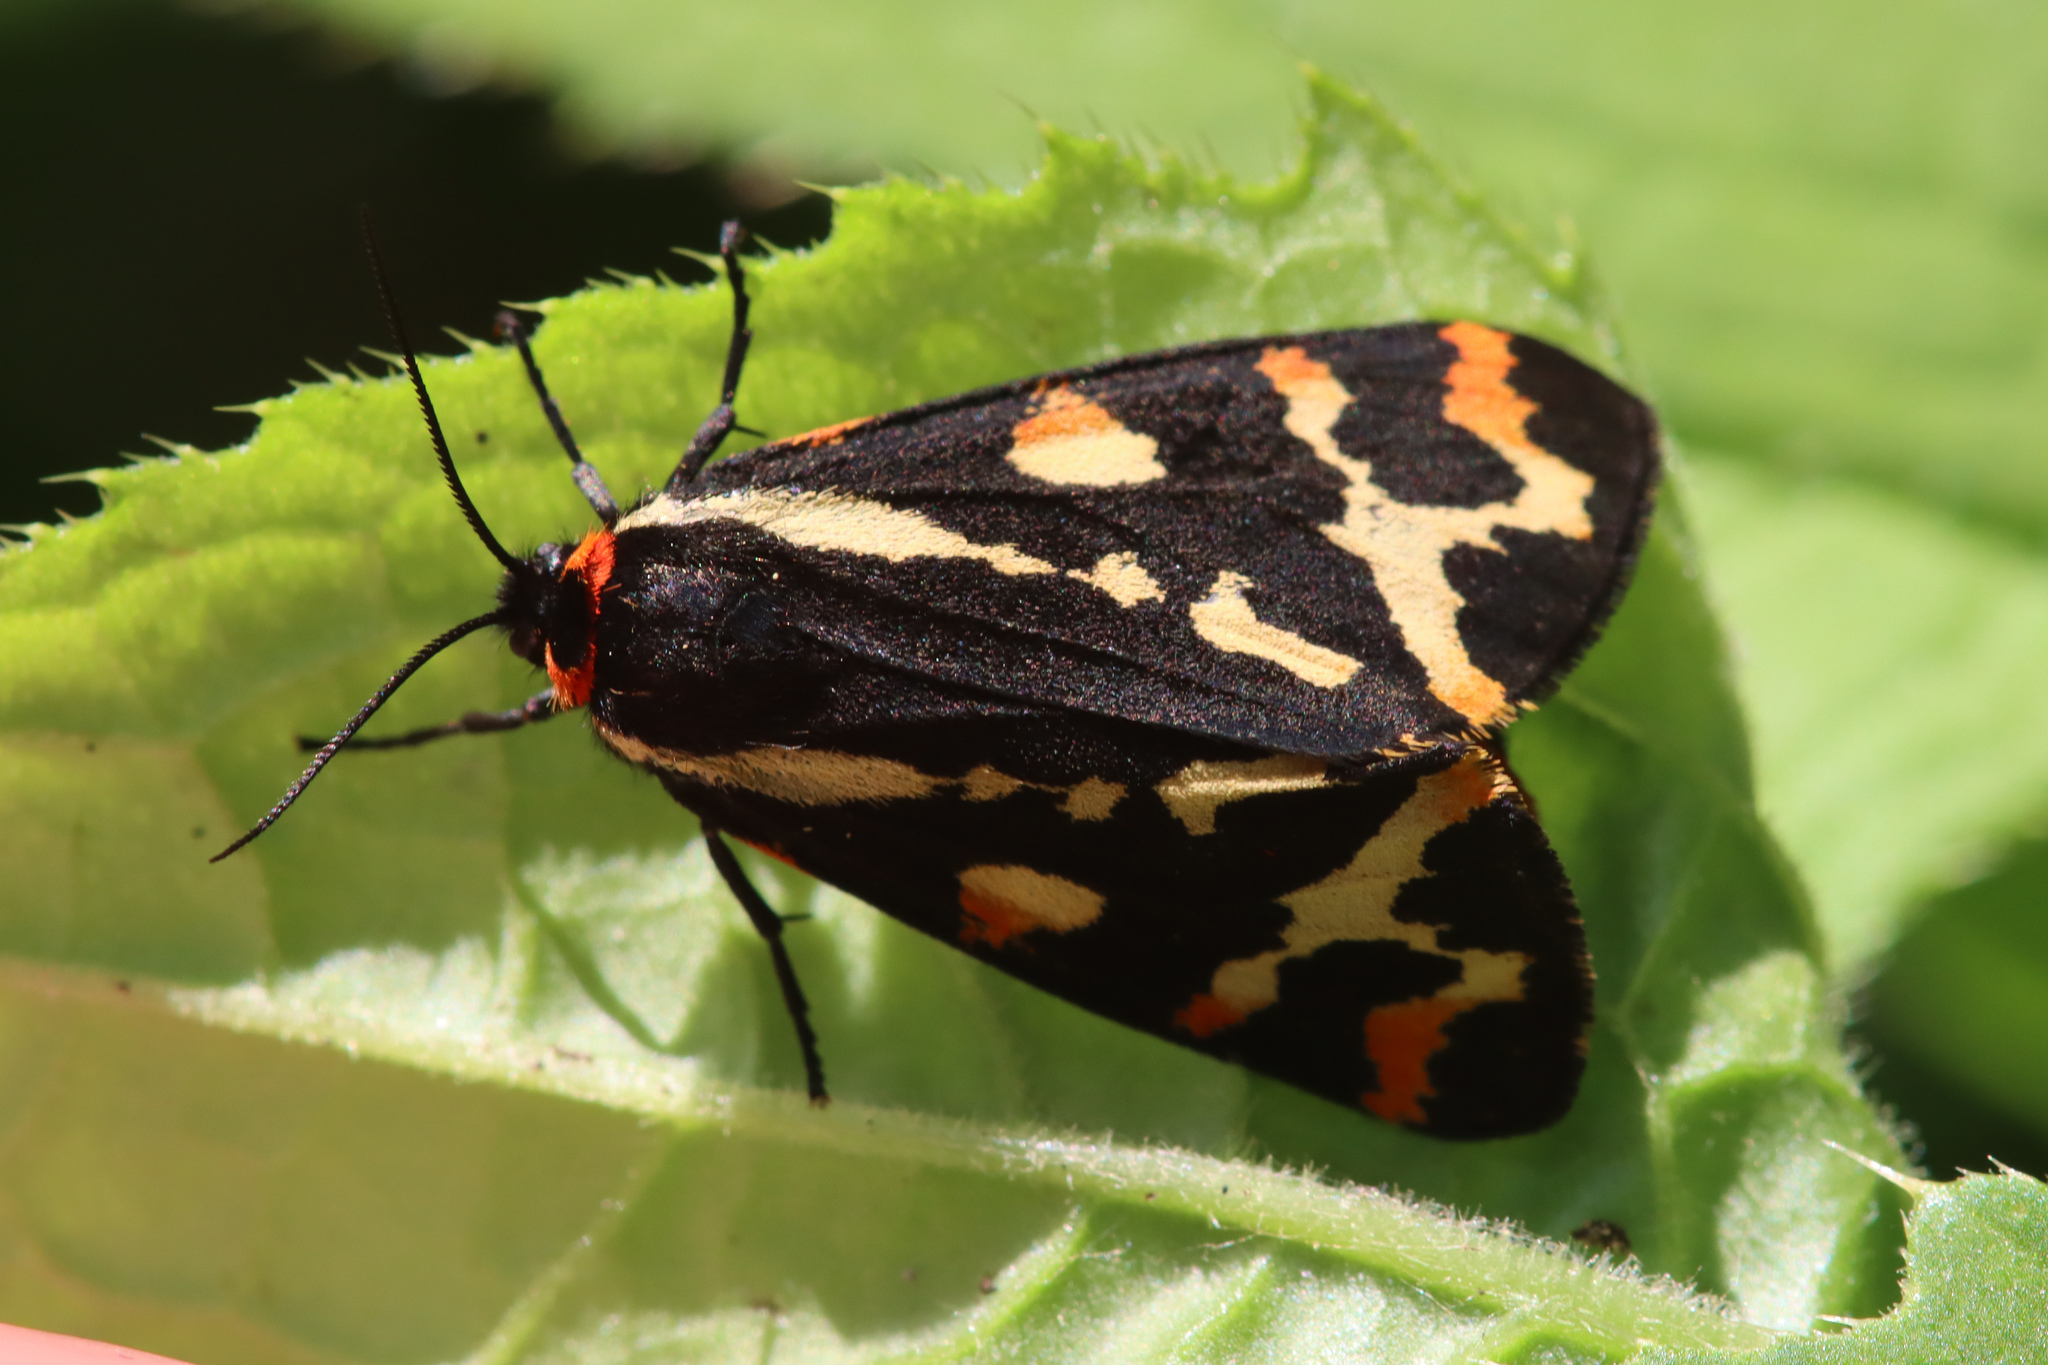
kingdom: Animalia
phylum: Arthropoda
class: Insecta
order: Lepidoptera
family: Erebidae
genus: Parasemia
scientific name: Parasemia plantaginis
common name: Wood tiger
